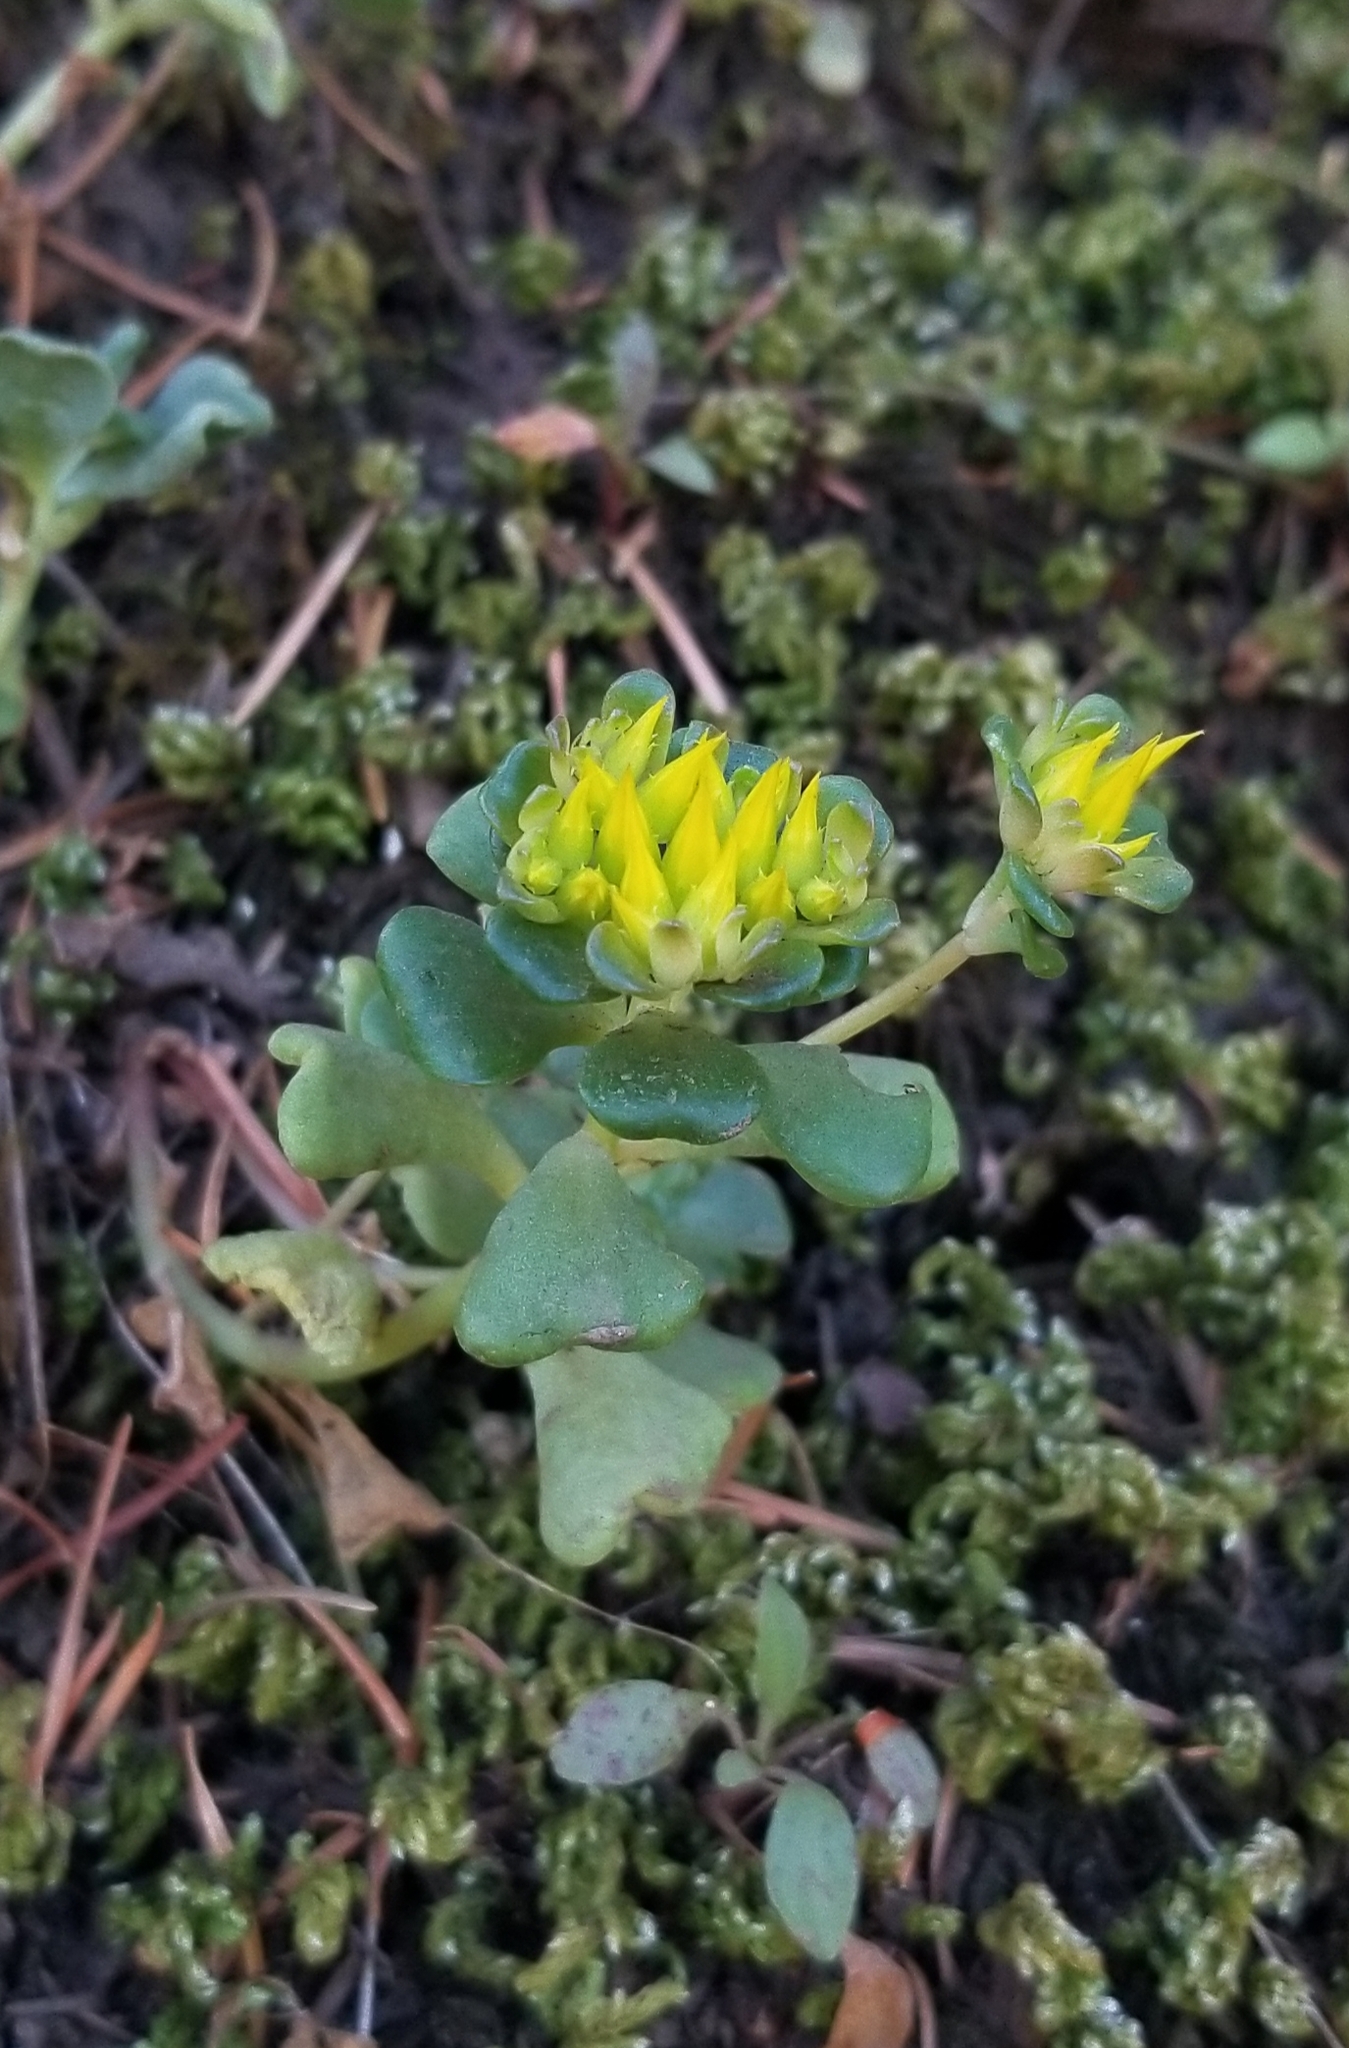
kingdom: Plantae
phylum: Tracheophyta
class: Magnoliopsida
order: Saxifragales
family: Crassulaceae
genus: Sedum
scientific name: Sedum oreganum
